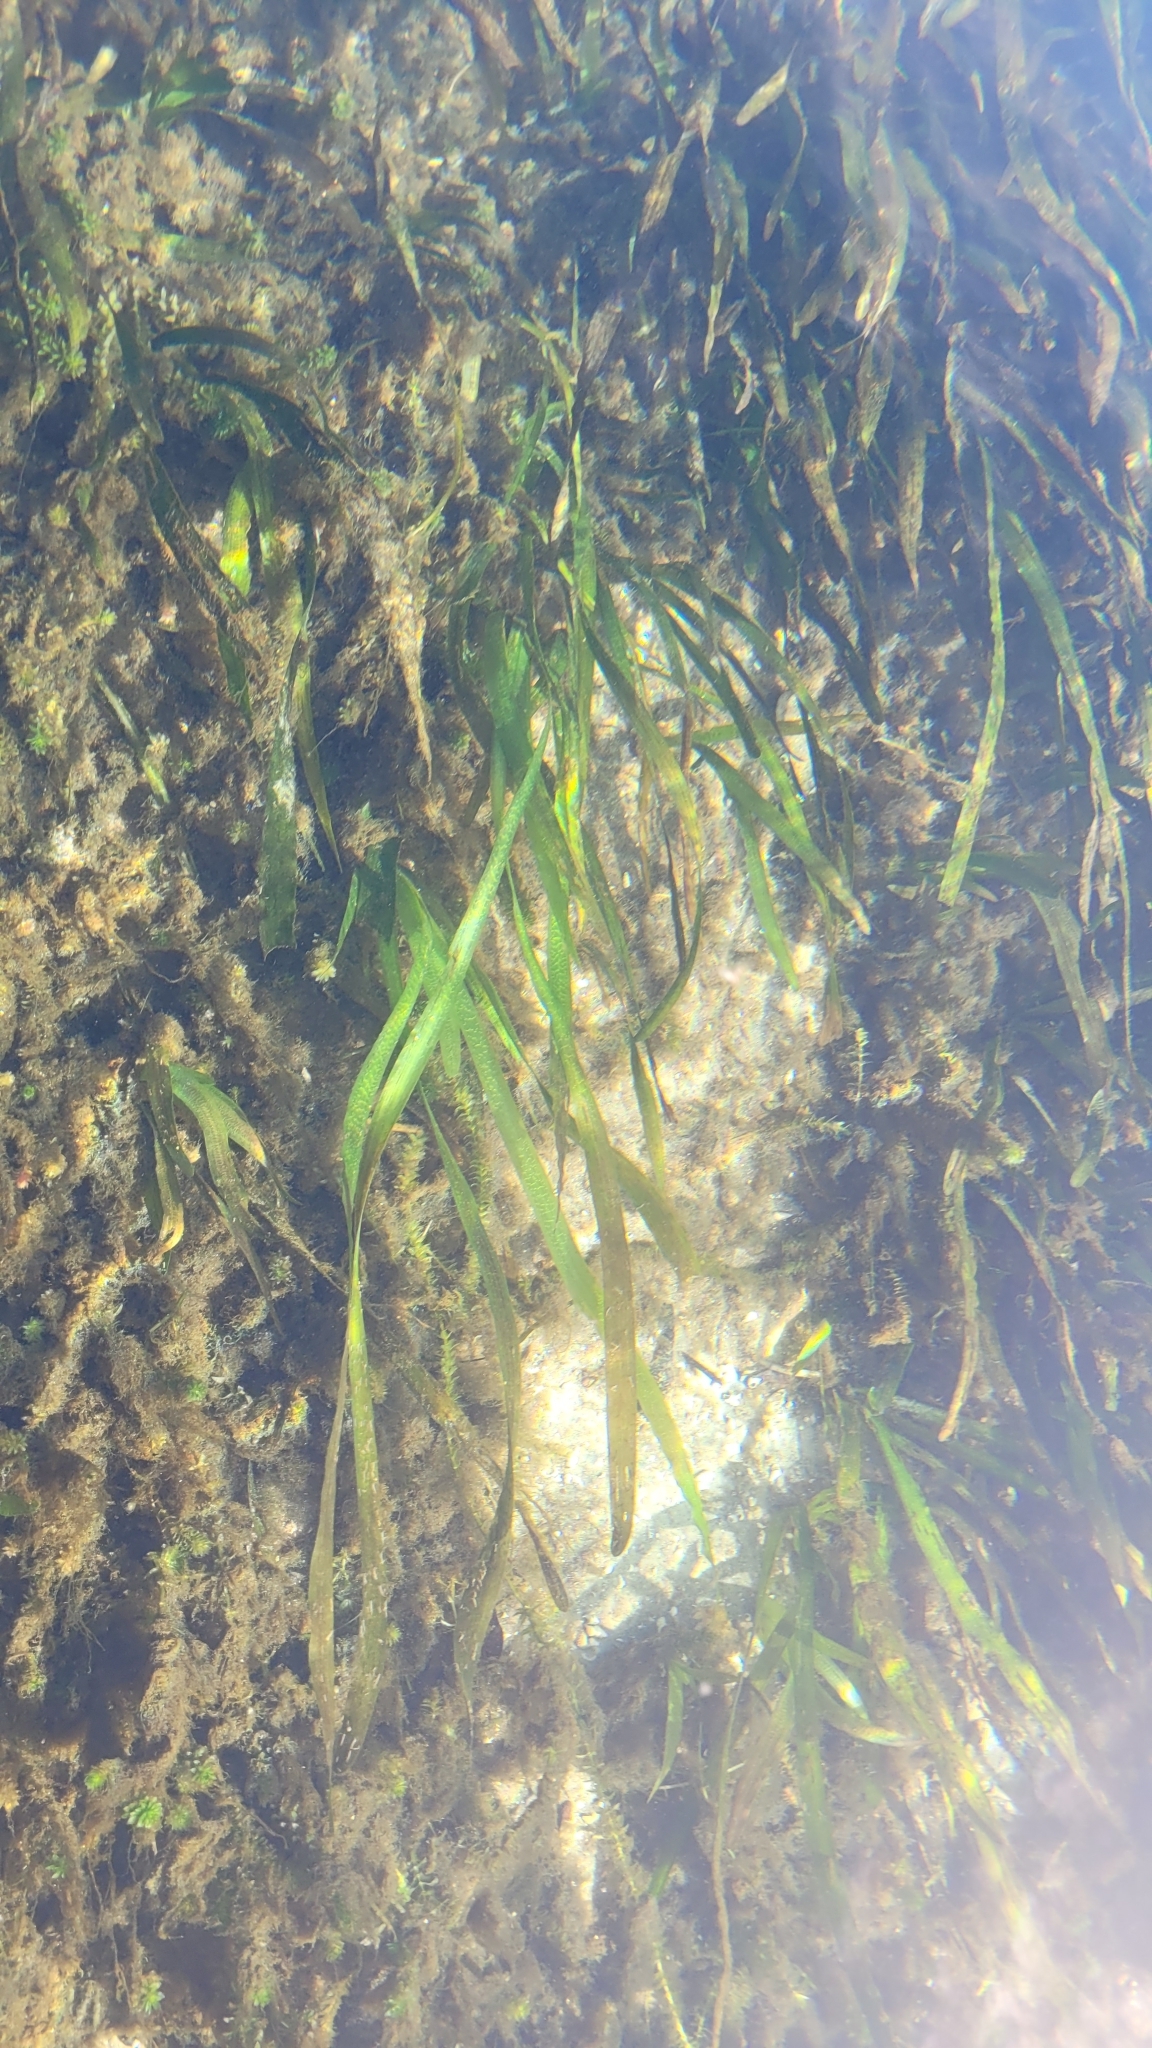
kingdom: Plantae
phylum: Tracheophyta
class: Liliopsida
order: Alismatales
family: Hydrocharitaceae
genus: Vallisneria
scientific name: Vallisneria americana
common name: American eelgrass
